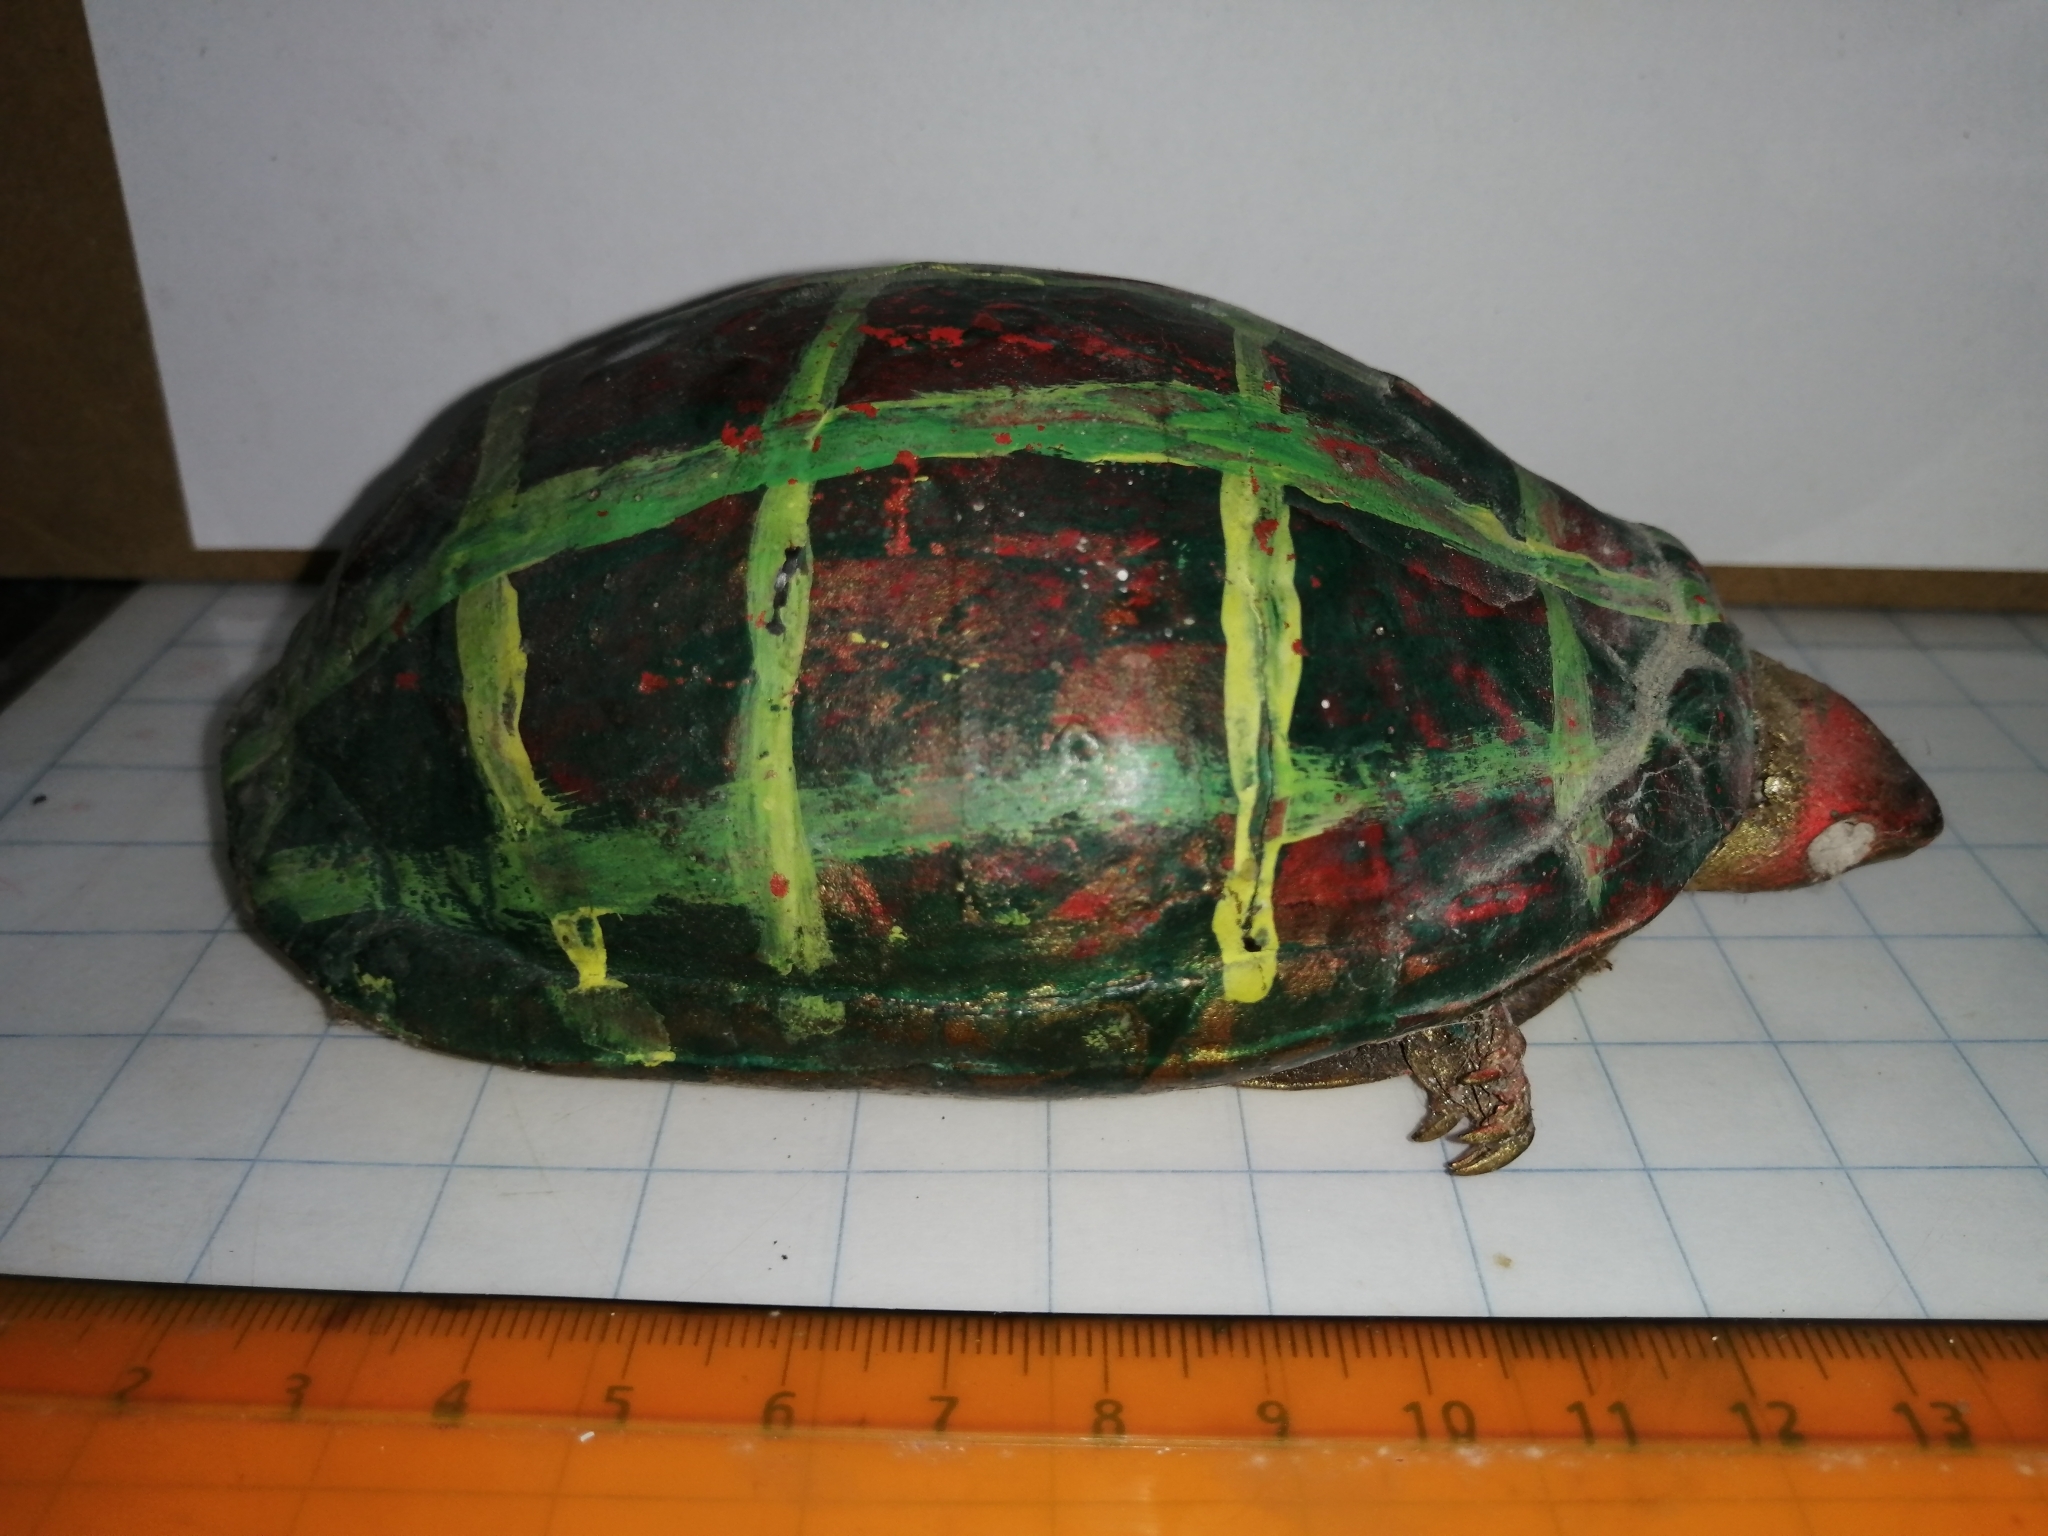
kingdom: Animalia
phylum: Chordata
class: Testudines
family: Kinosternidae
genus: Kinosternon
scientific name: Kinosternon leucostomum
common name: White-lipped mud turtle
